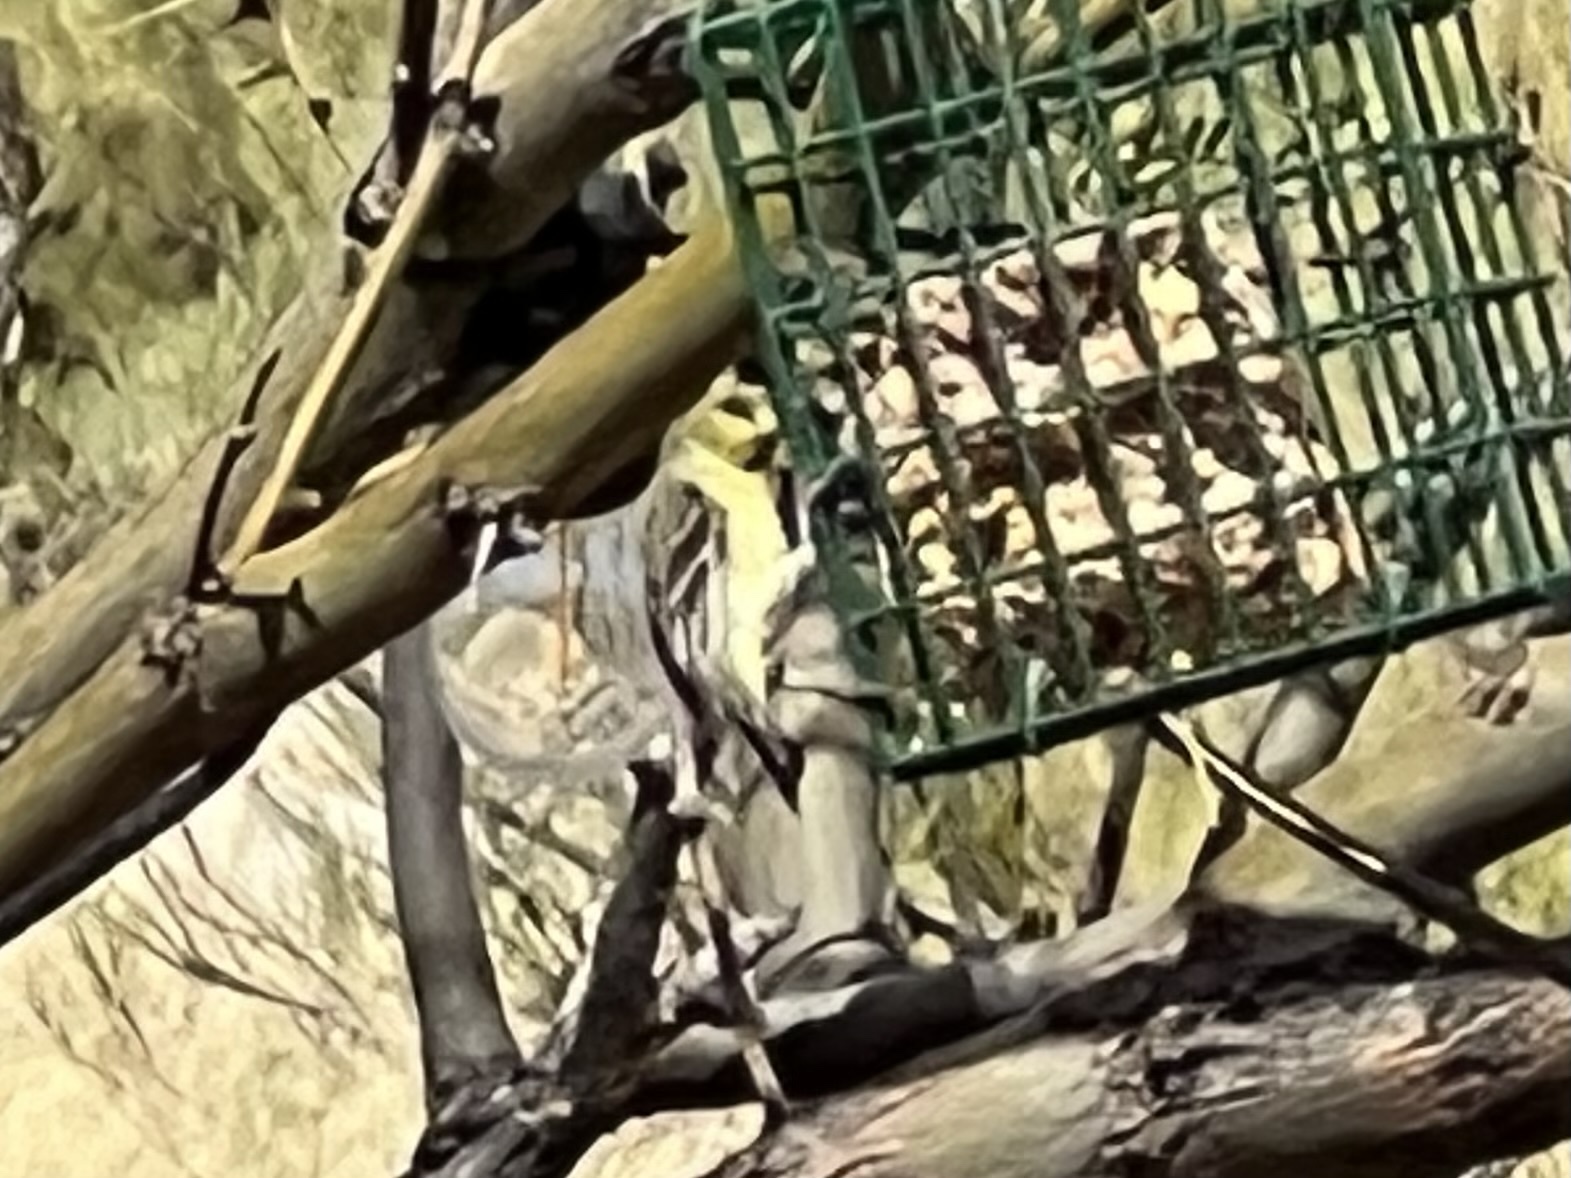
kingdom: Animalia
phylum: Chordata
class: Aves
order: Passeriformes
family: Fringillidae
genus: Spinus
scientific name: Spinus psaltria
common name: Lesser goldfinch
